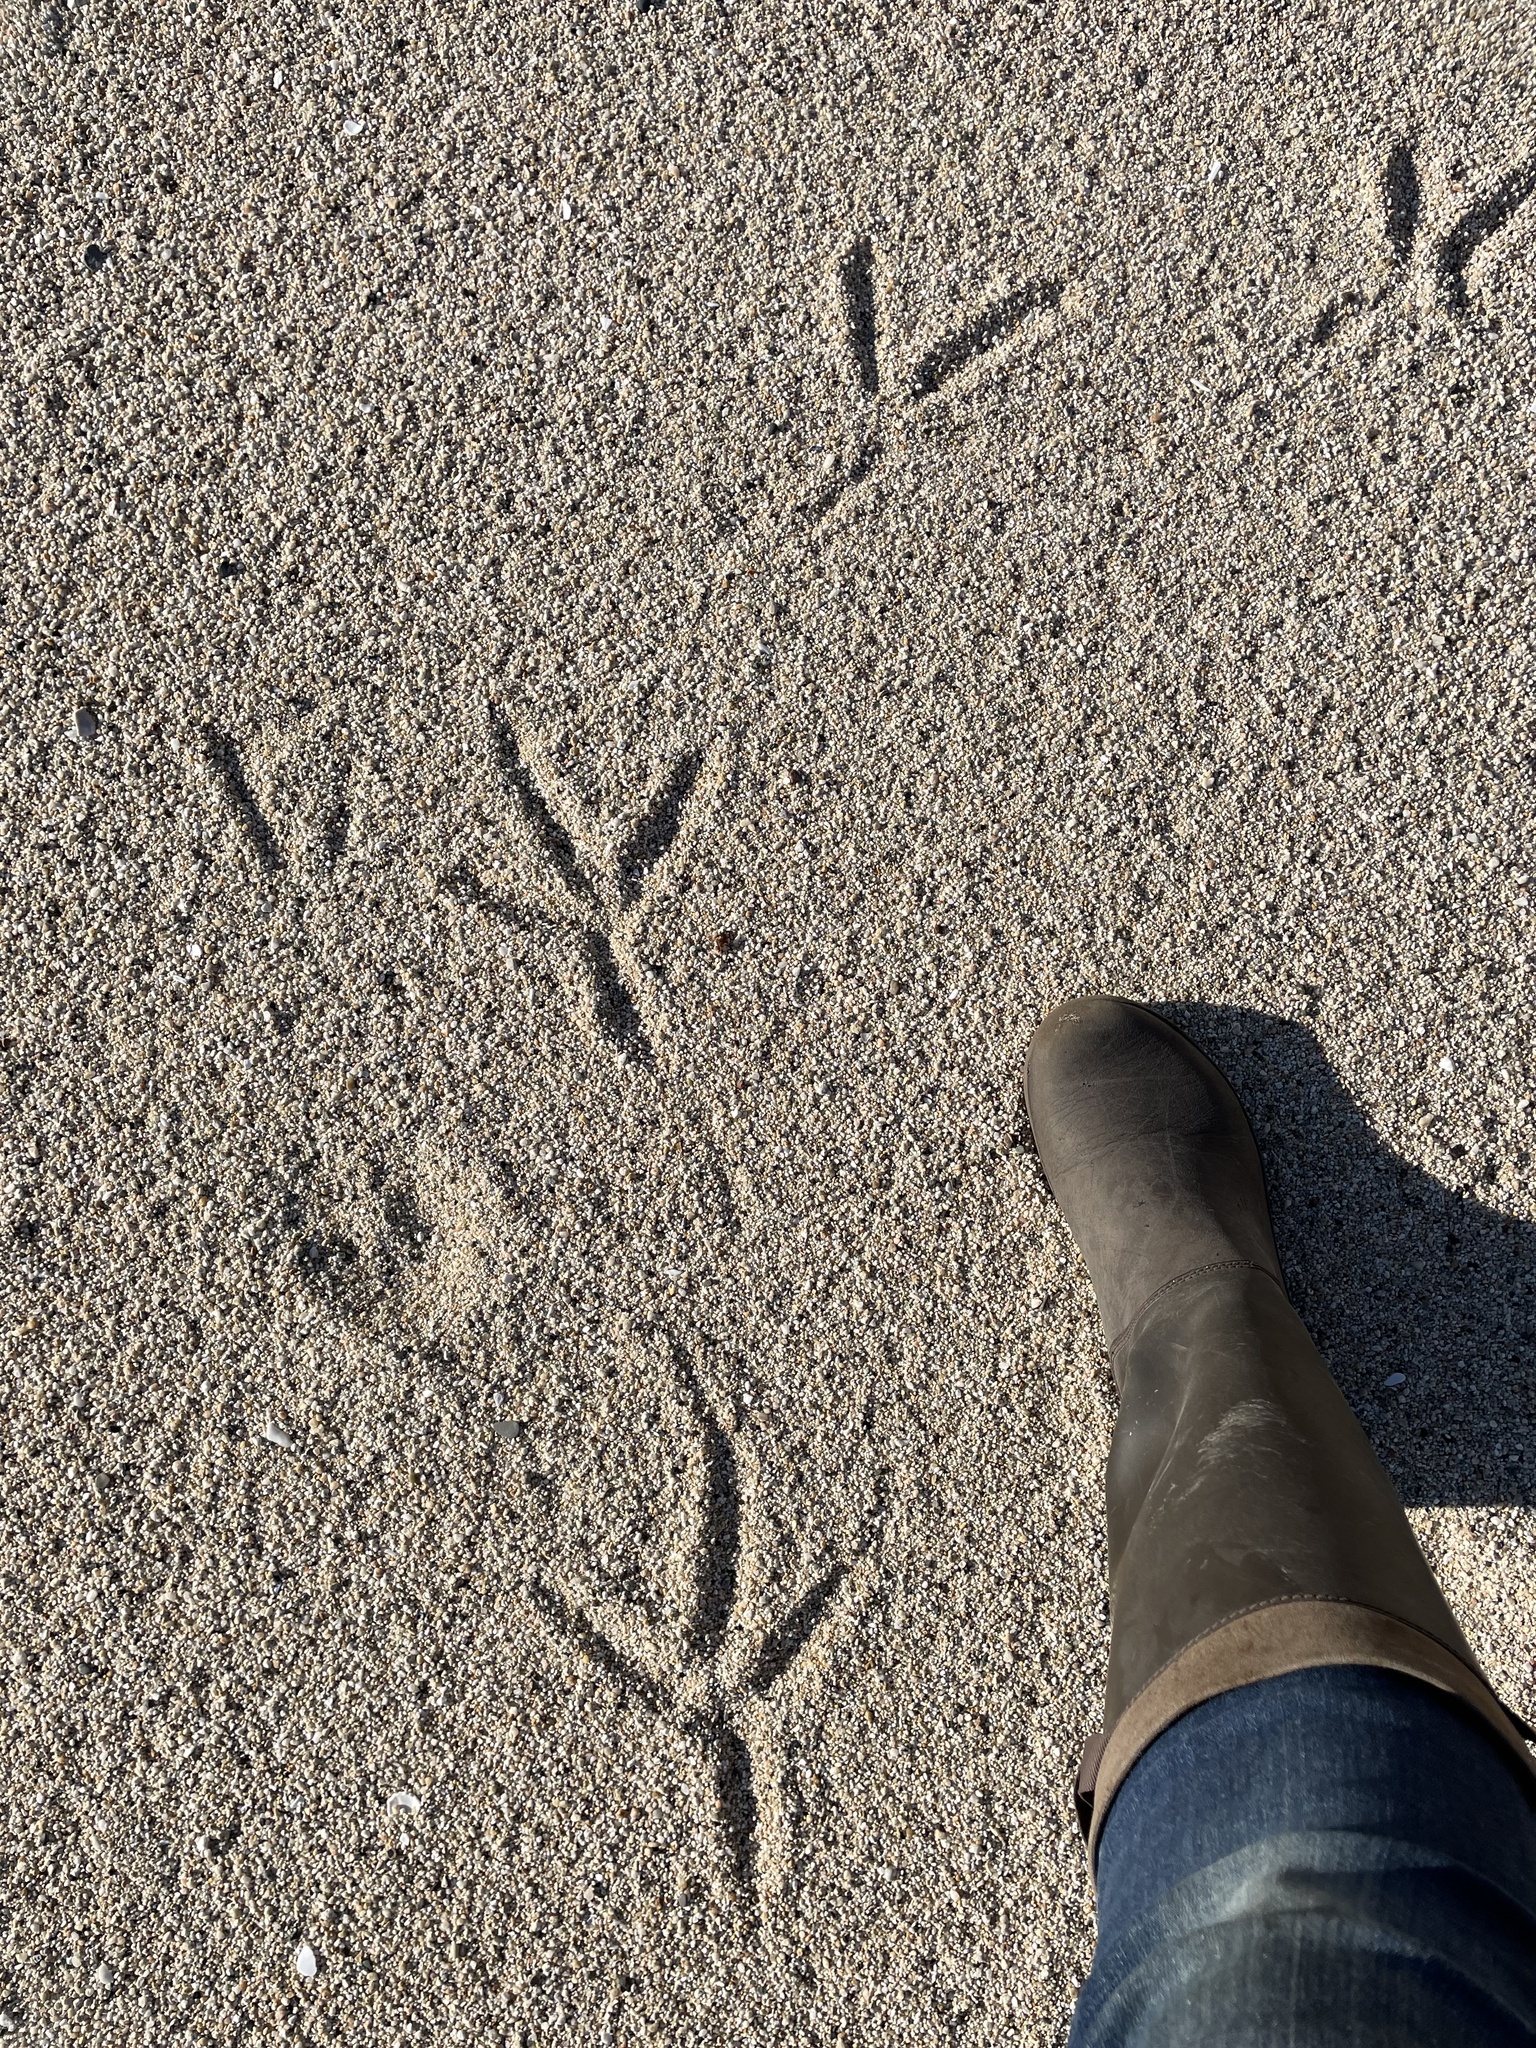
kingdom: Animalia
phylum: Chordata
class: Aves
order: Pelecaniformes
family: Ardeidae
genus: Ardea
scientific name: Ardea herodias
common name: Great blue heron
